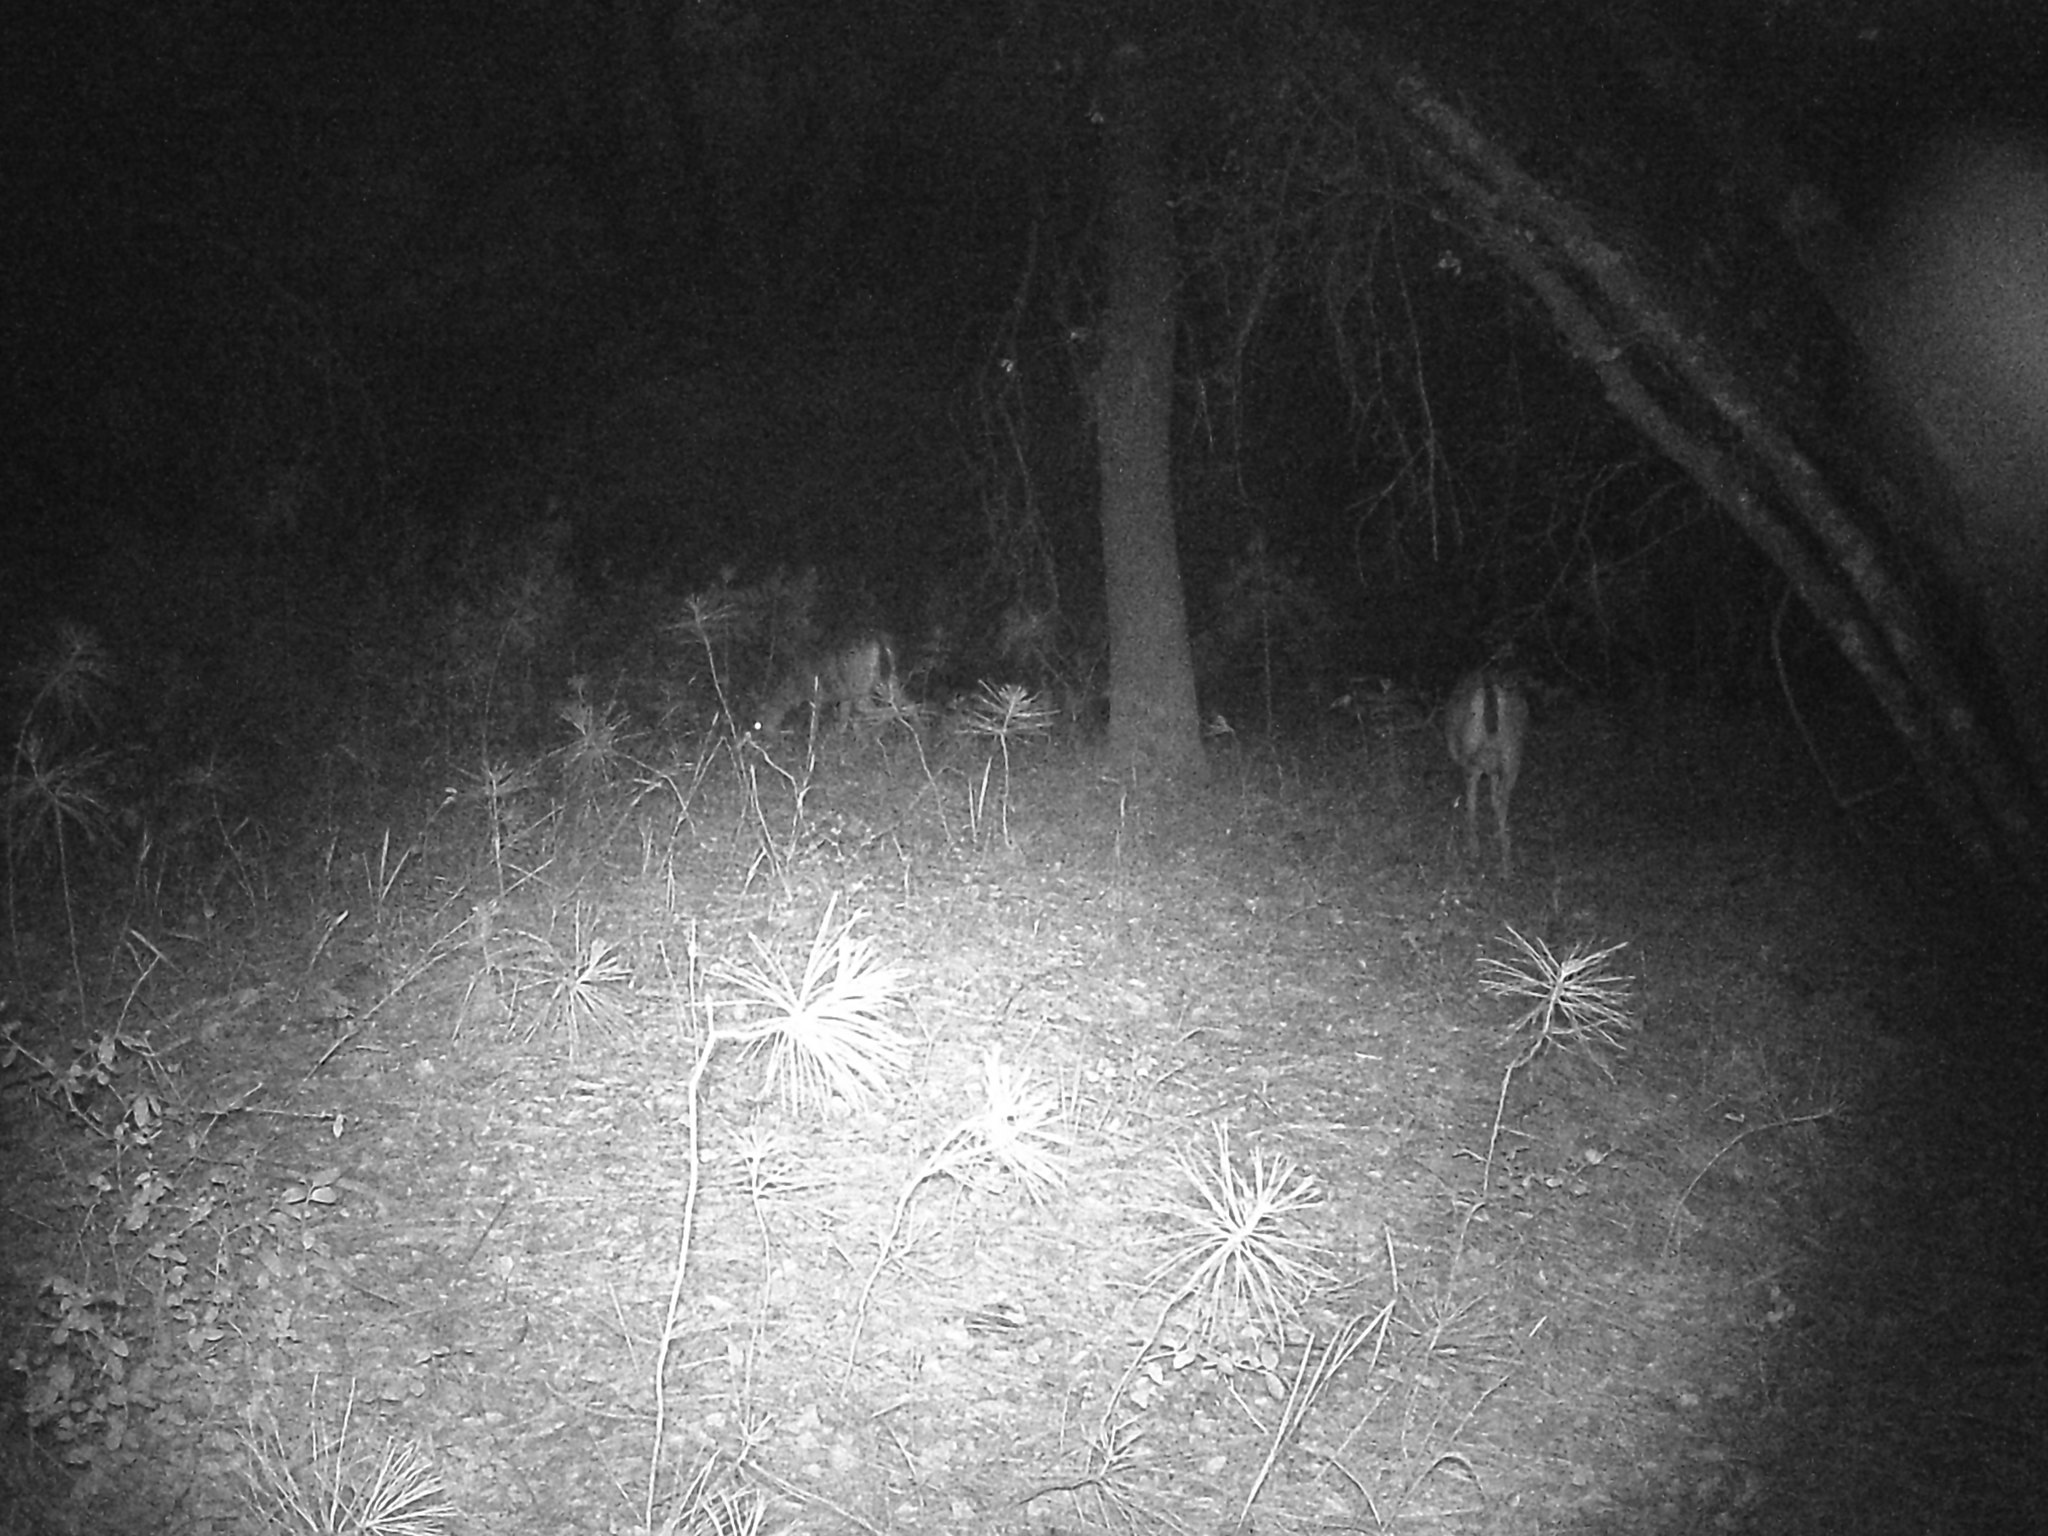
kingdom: Animalia
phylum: Chordata
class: Mammalia
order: Artiodactyla
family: Cervidae
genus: Odocoileus
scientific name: Odocoileus hemionus
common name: Mule deer
